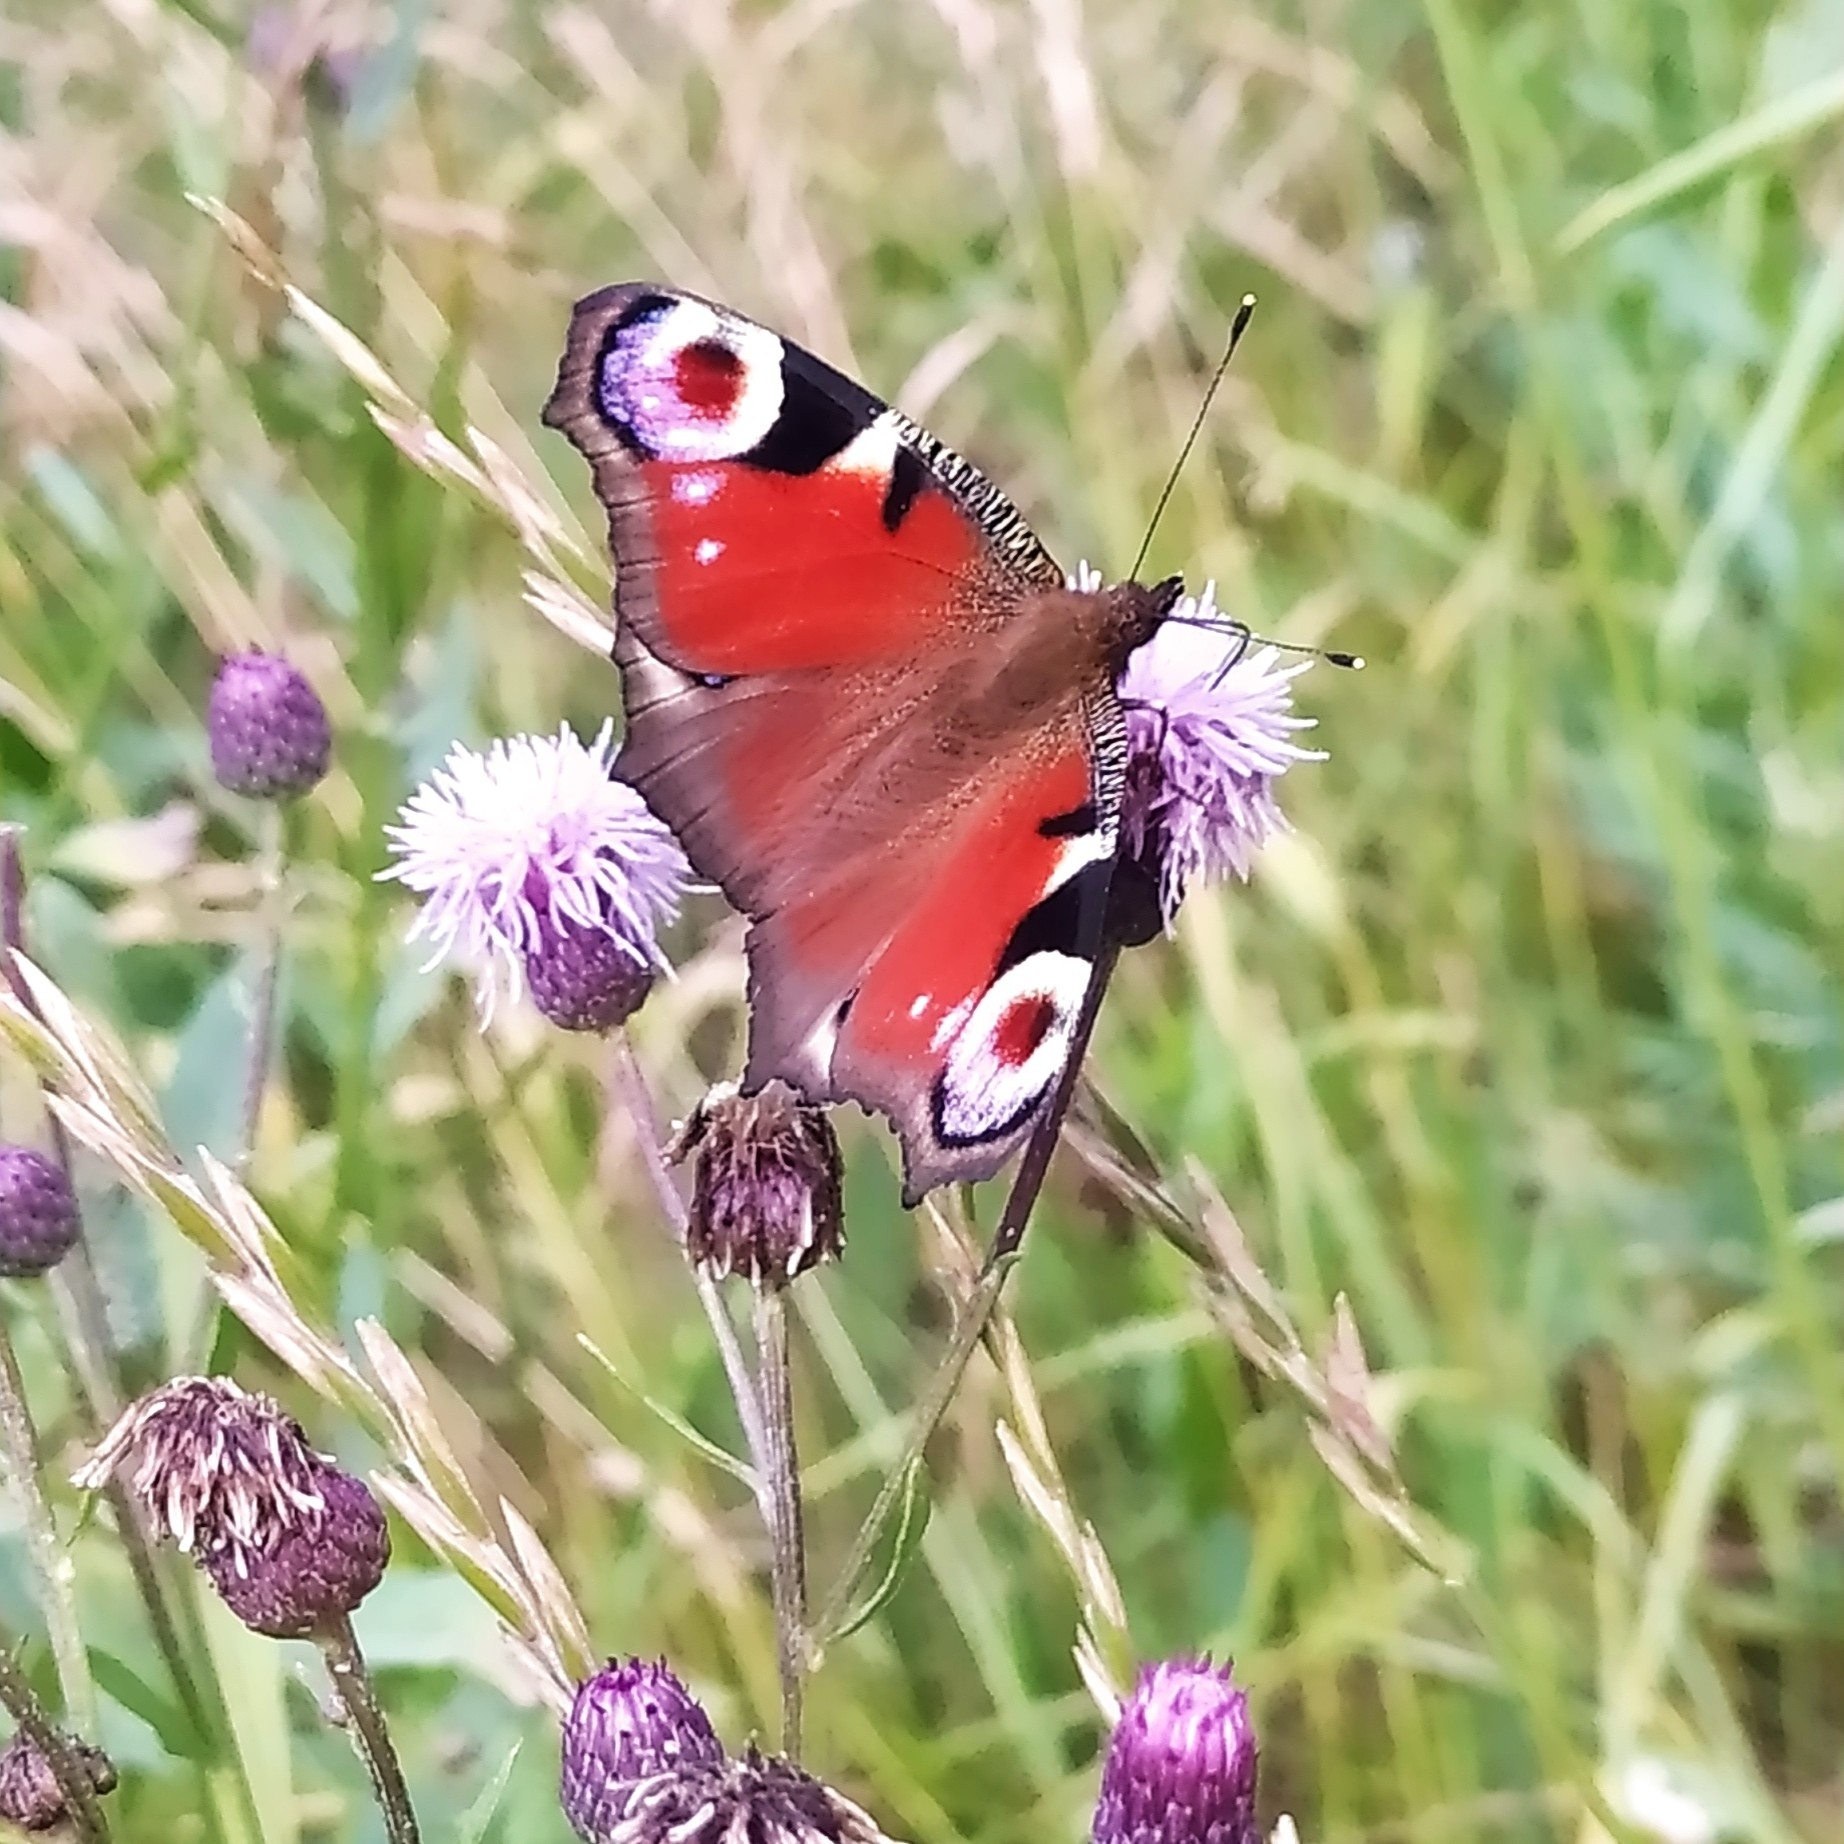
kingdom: Animalia
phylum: Arthropoda
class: Insecta
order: Lepidoptera
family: Nymphalidae
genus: Aglais
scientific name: Aglais io
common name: Peacock
